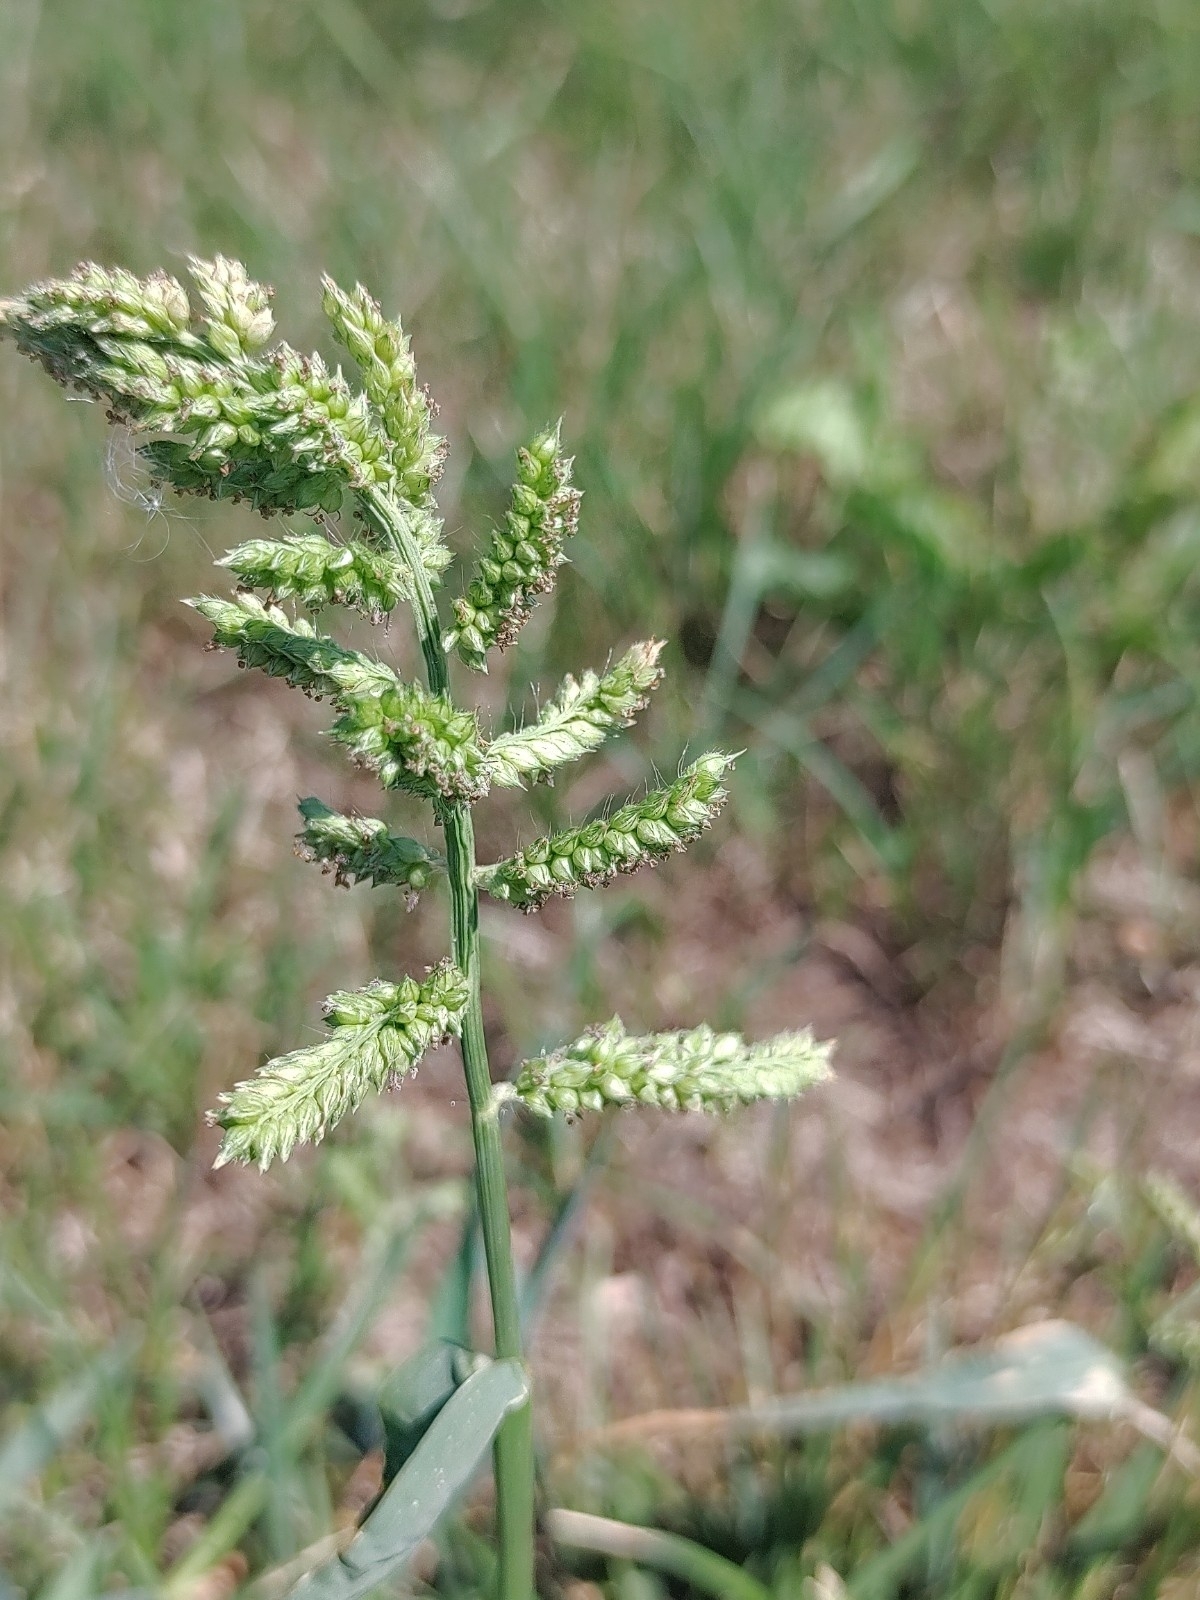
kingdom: Plantae
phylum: Tracheophyta
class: Liliopsida
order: Poales
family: Poaceae
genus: Echinochloa
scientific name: Echinochloa crus-galli
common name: Cockspur
